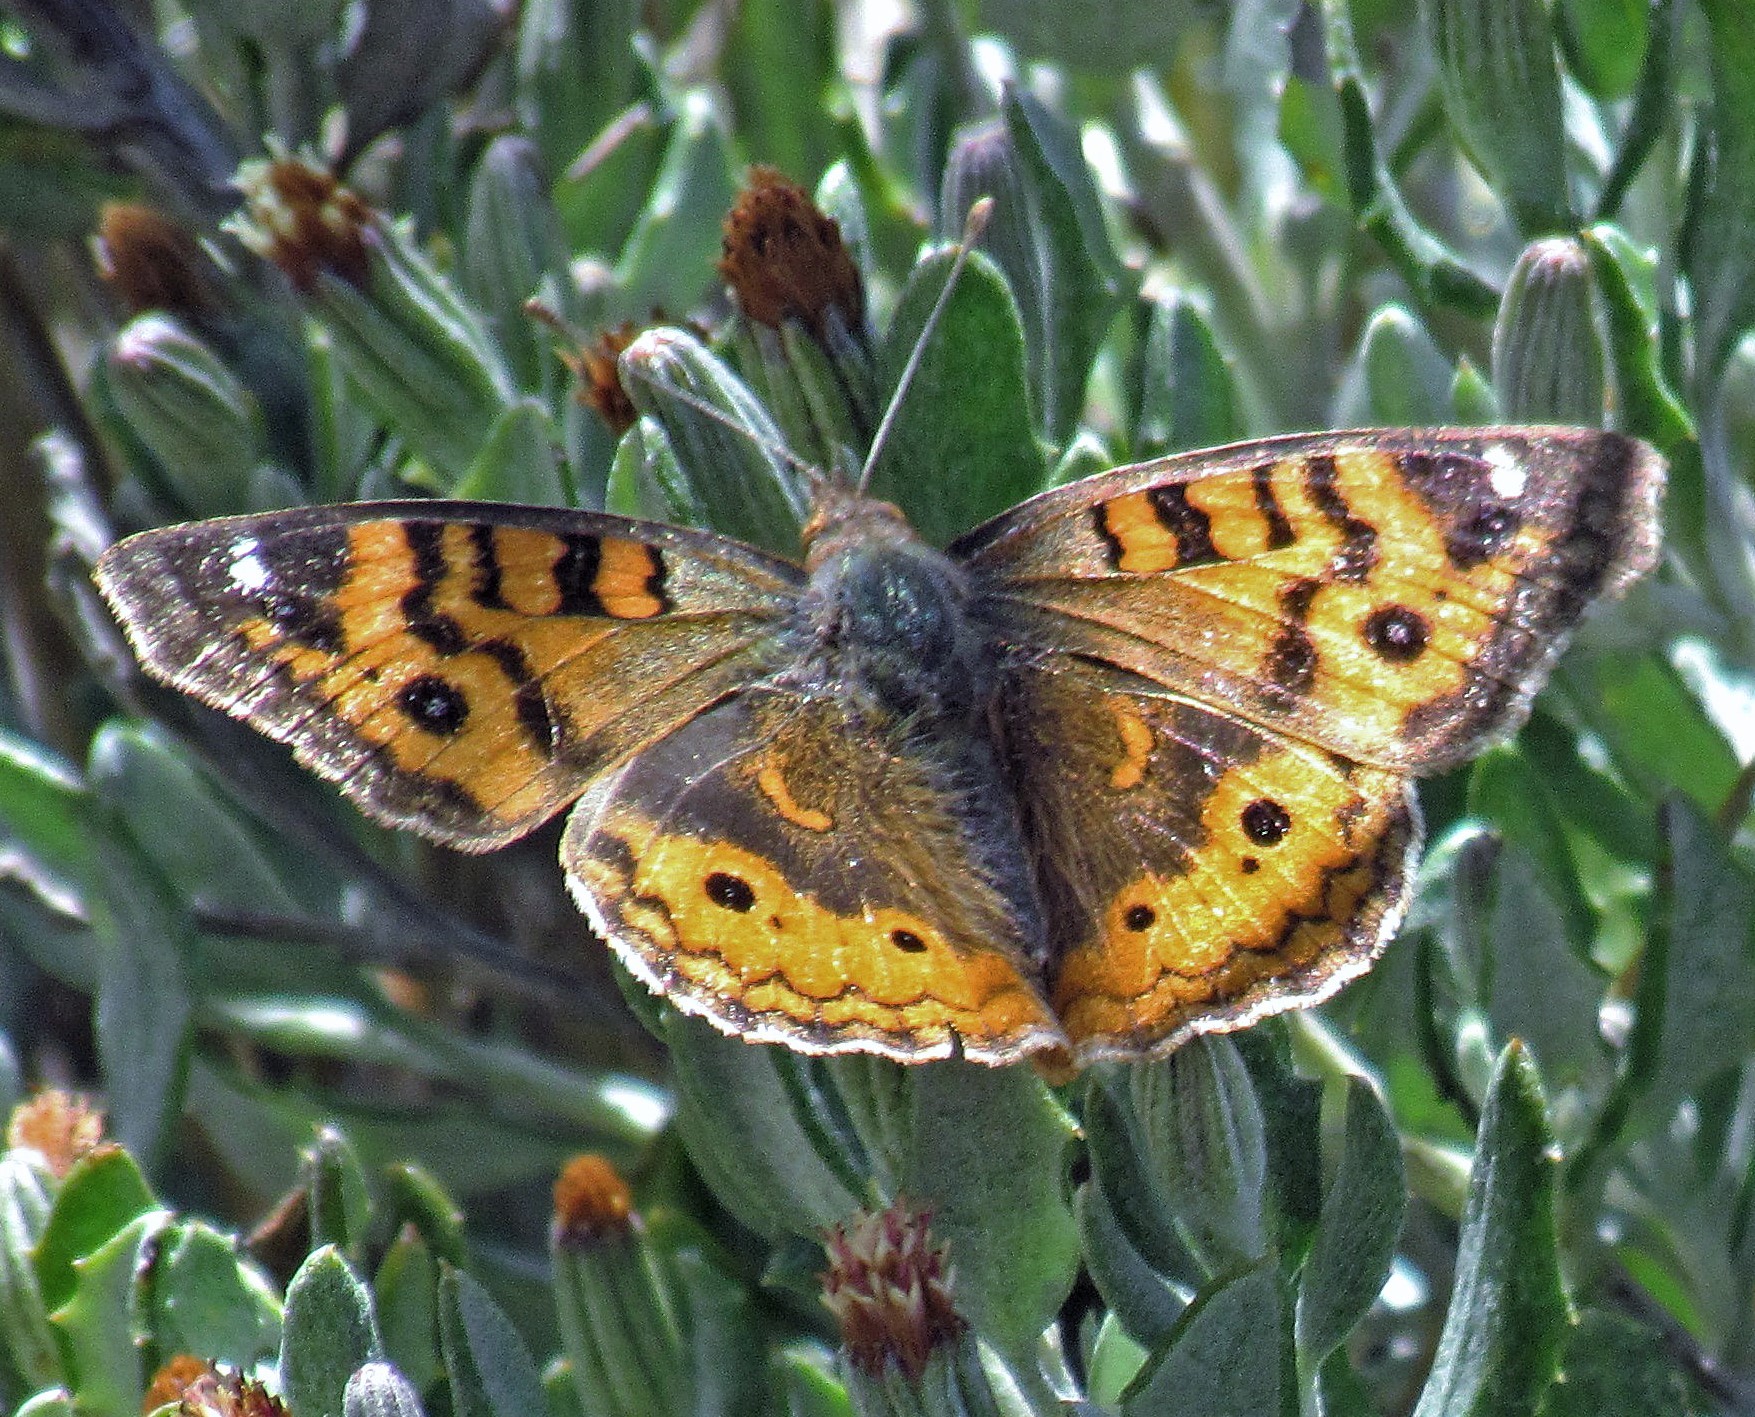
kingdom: Animalia
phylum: Arthropoda
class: Insecta
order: Lepidoptera
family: Nymphalidae
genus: Junonia
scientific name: Junonia vestina
